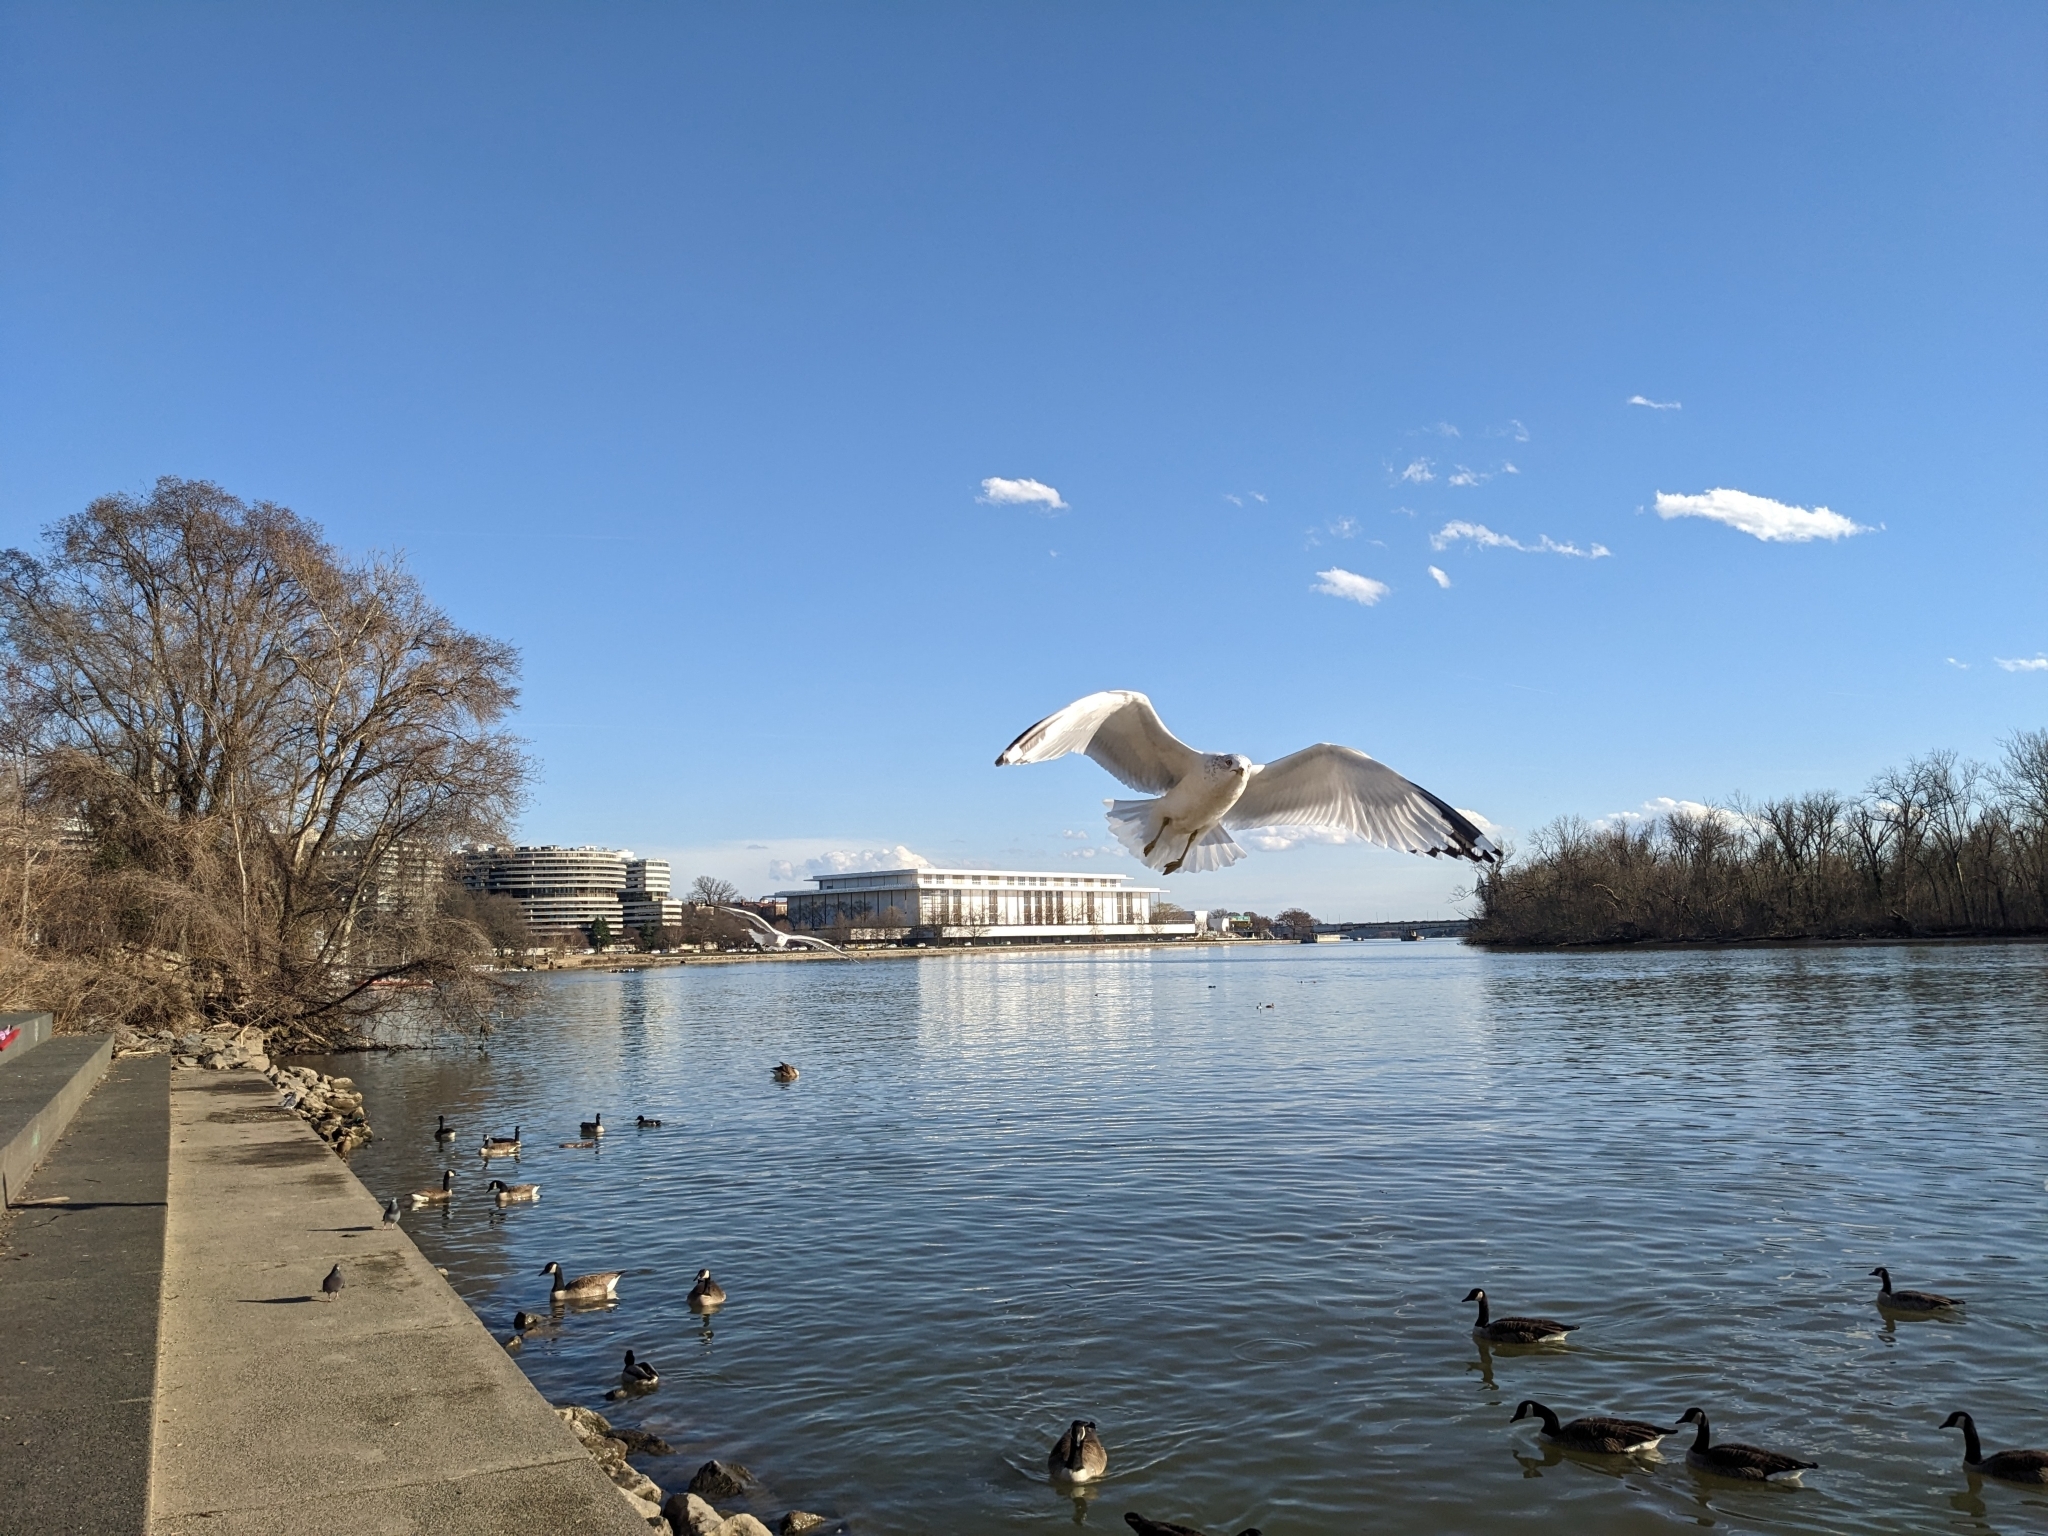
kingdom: Animalia
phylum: Chordata
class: Aves
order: Charadriiformes
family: Laridae
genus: Larus
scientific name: Larus delawarensis
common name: Ring-billed gull
